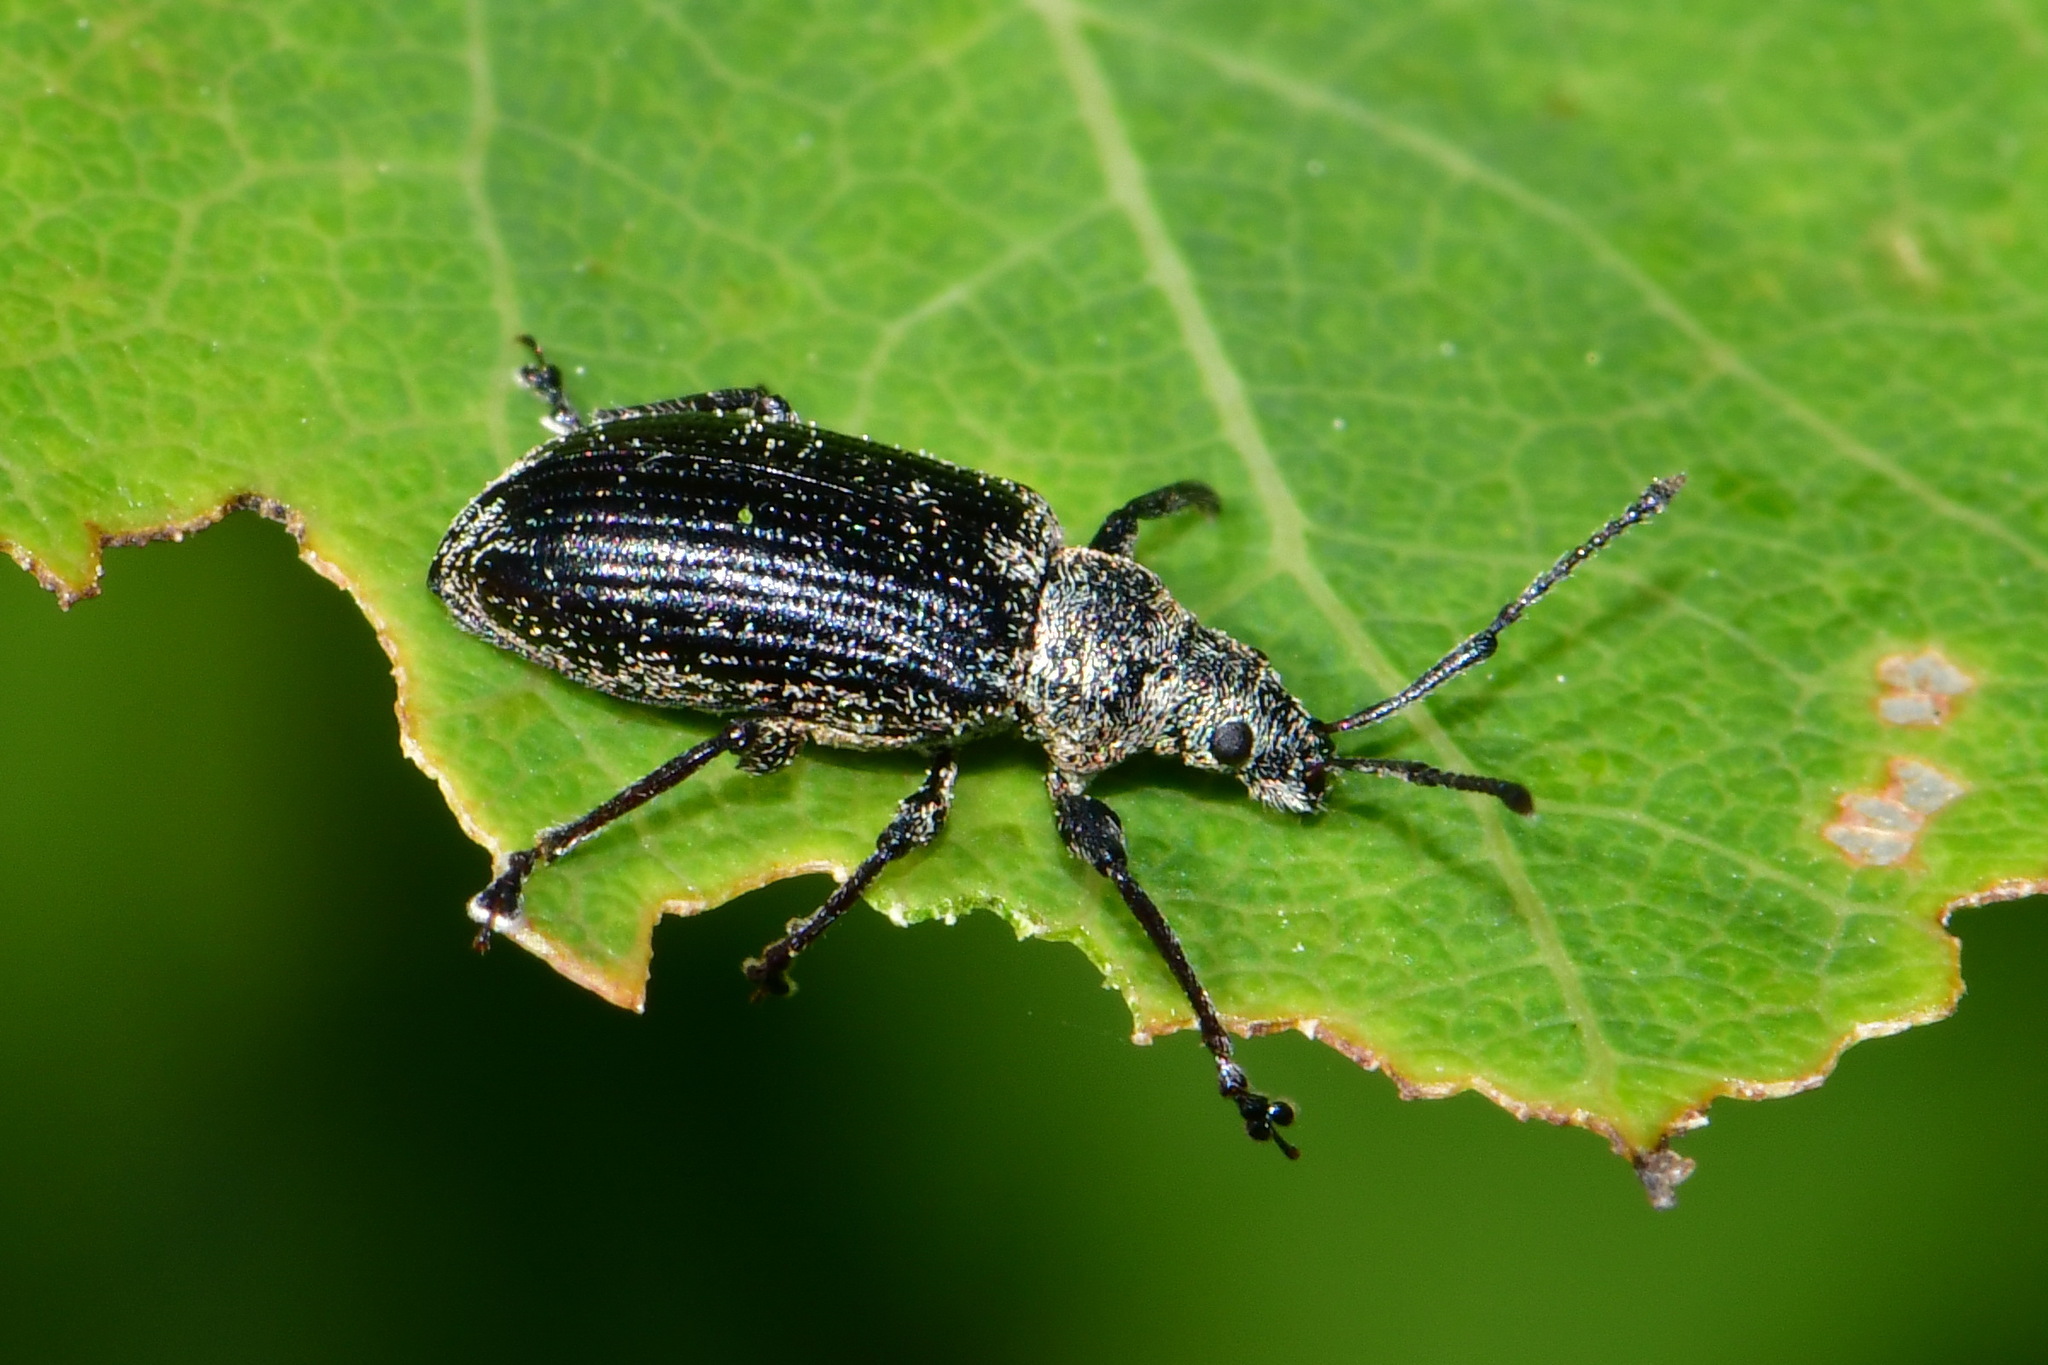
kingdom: Animalia
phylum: Arthropoda
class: Insecta
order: Coleoptera
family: Curculionidae
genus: Phyllobius
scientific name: Phyllobius pyri
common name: Common leaf weevil
